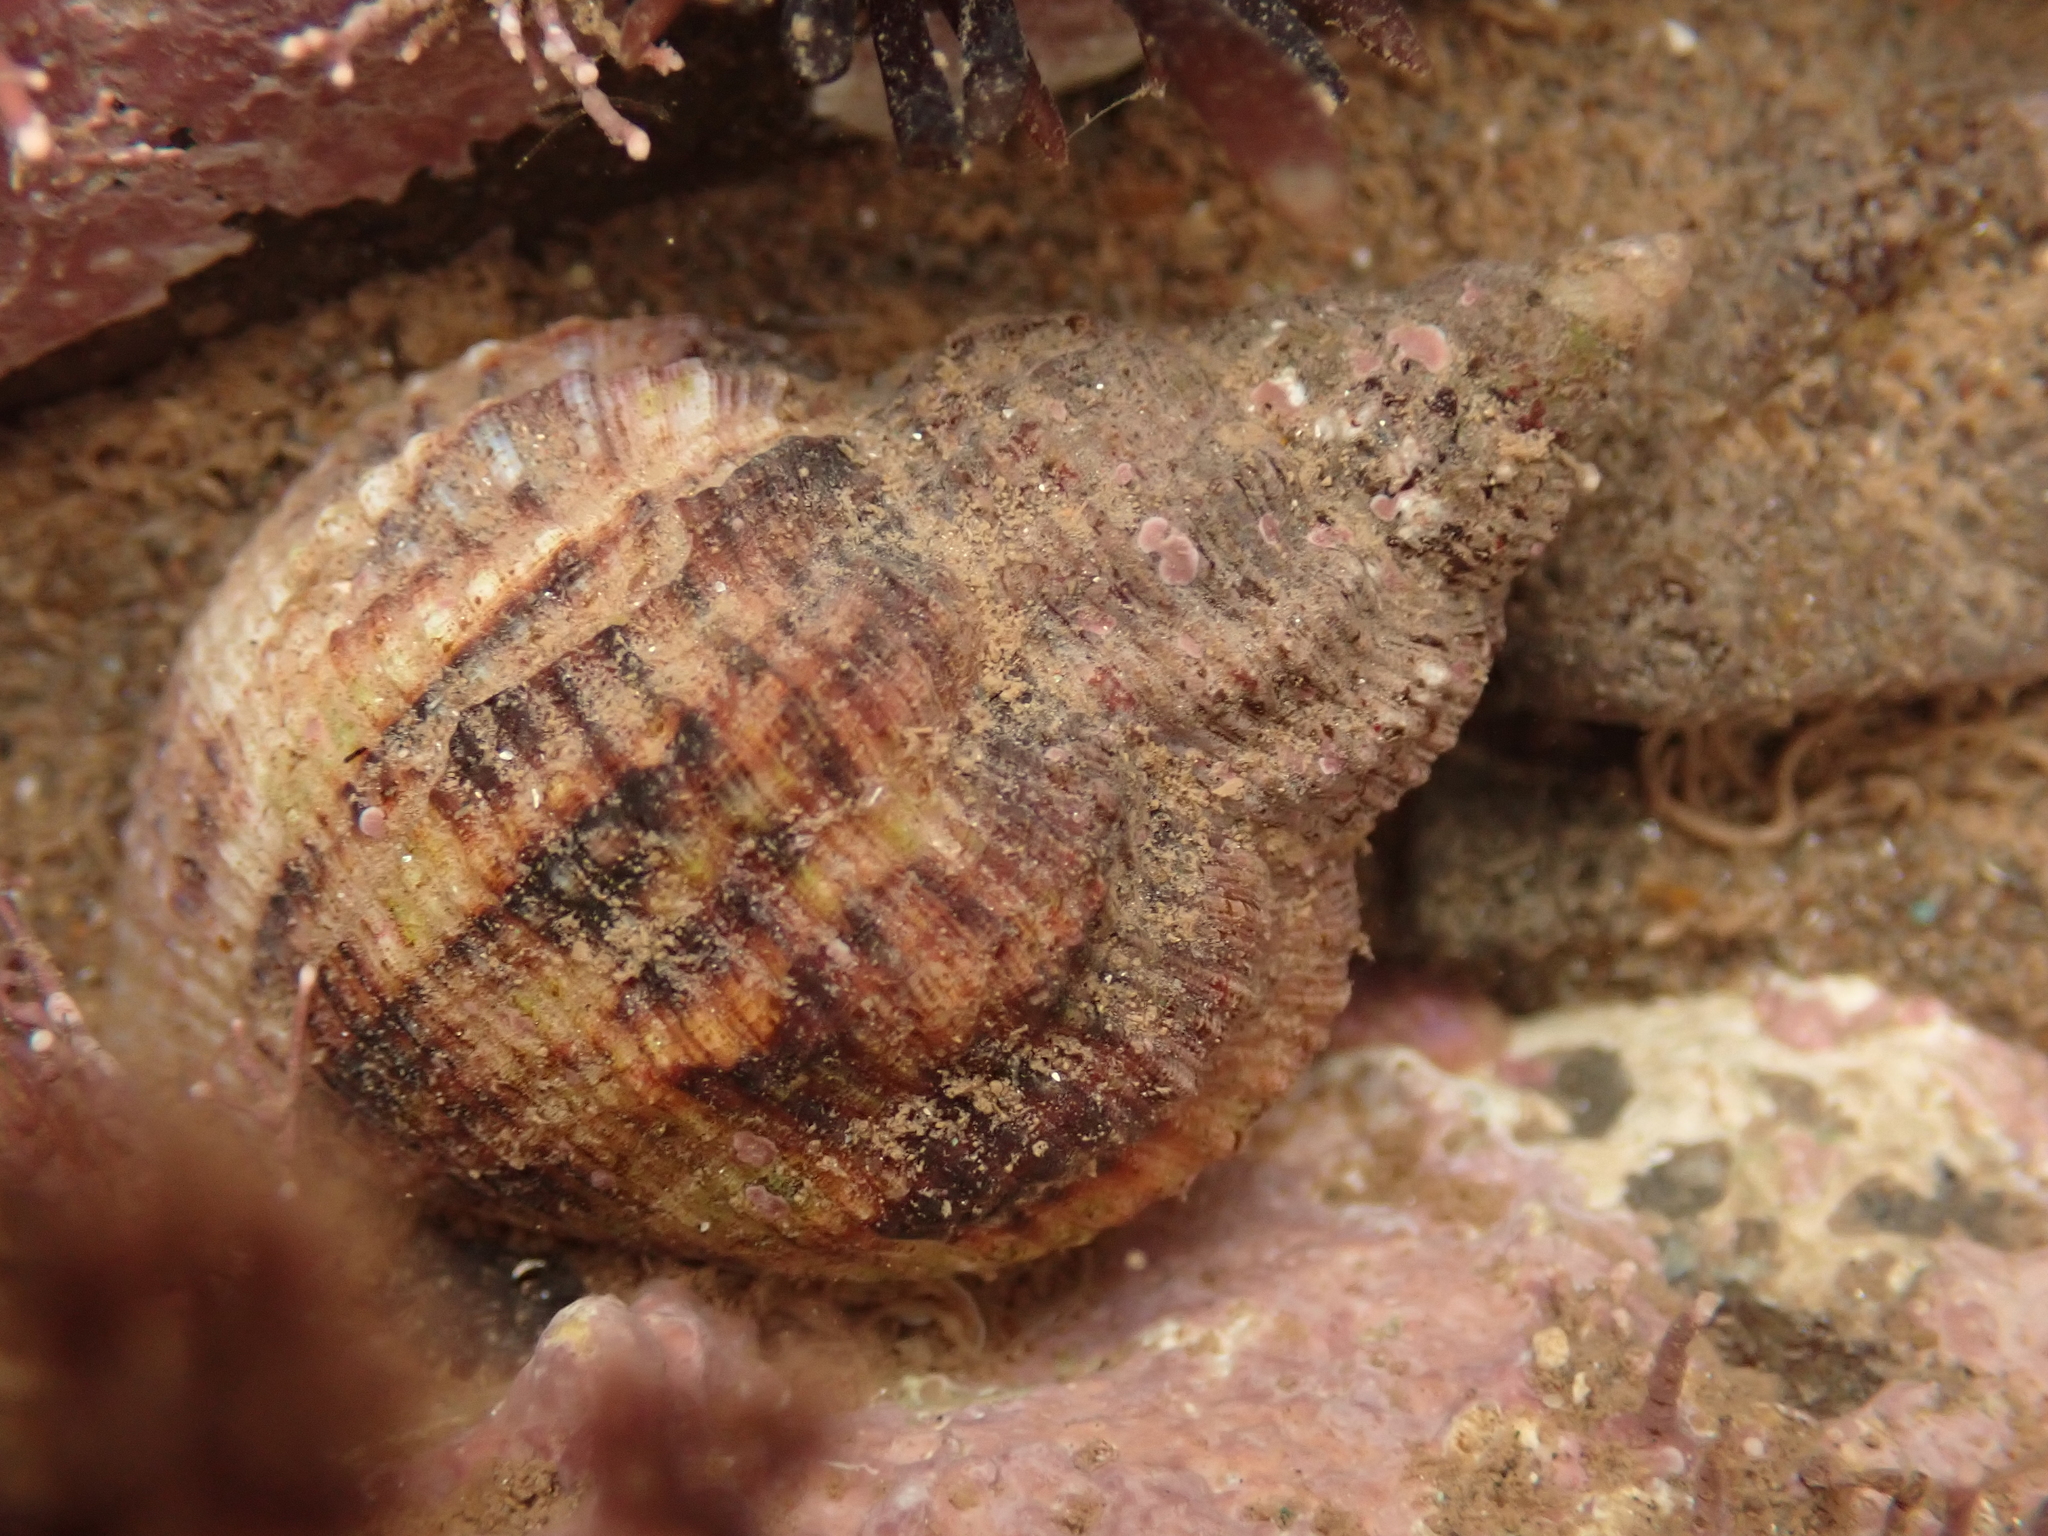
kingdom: Animalia
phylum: Mollusca
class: Gastropoda
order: Neogastropoda
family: Buccinidae
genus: Buccinum
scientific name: Buccinum undatum
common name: Common whelk
